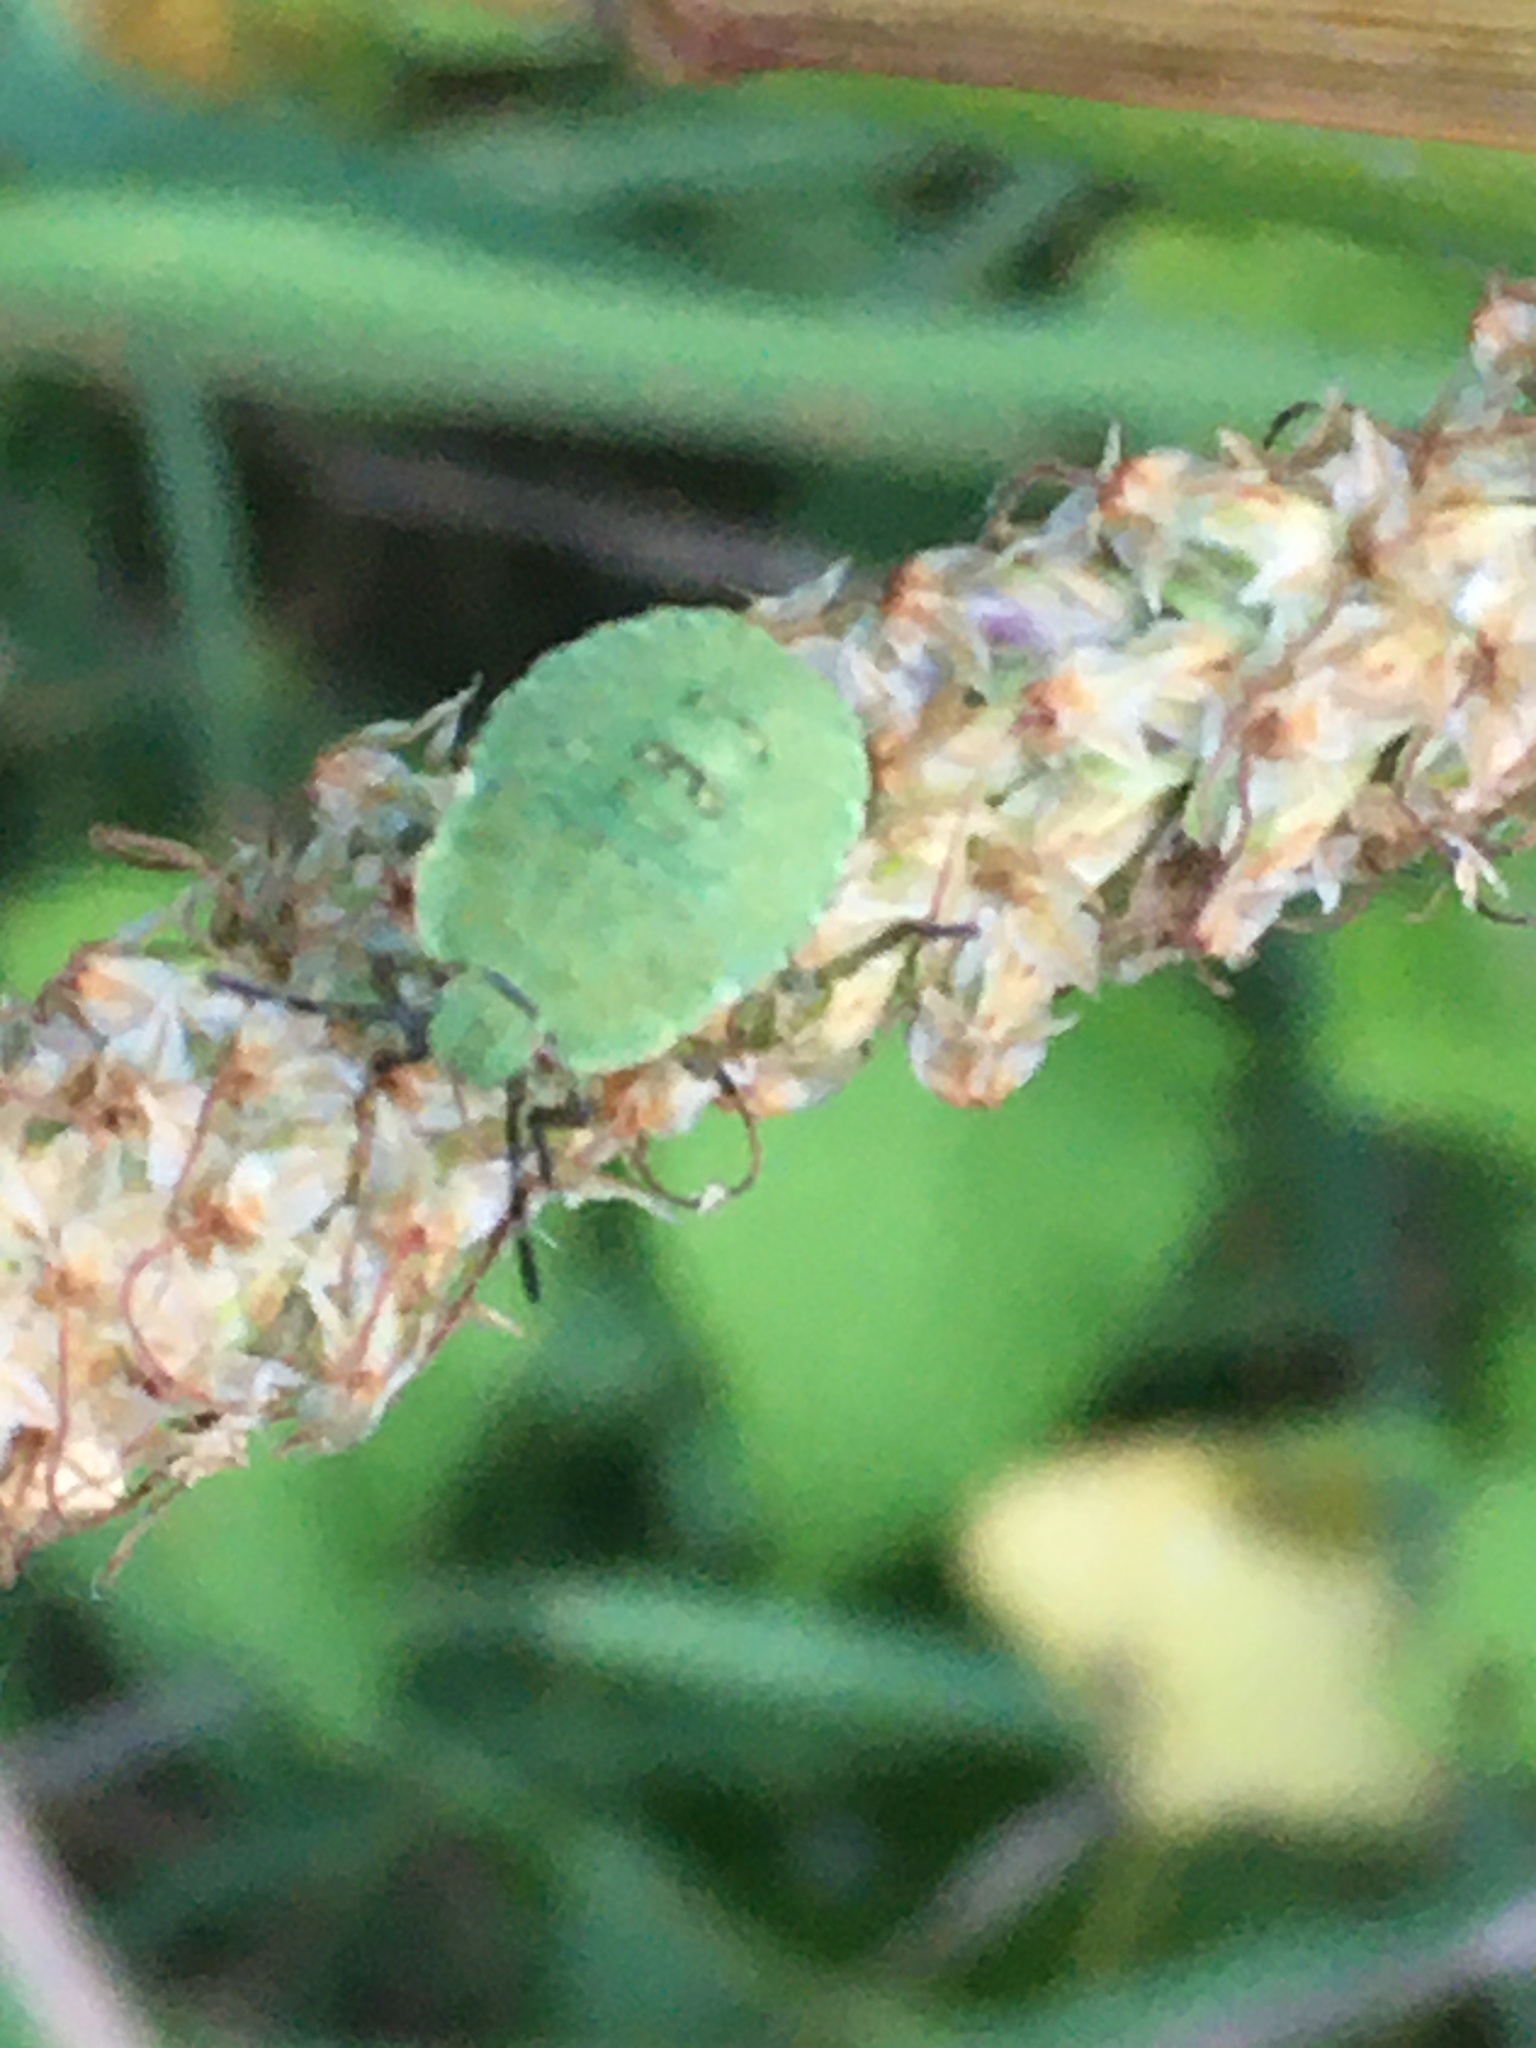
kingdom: Animalia
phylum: Arthropoda
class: Insecta
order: Hemiptera
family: Pentatomidae
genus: Palomena
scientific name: Palomena prasina
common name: Green shieldbug
